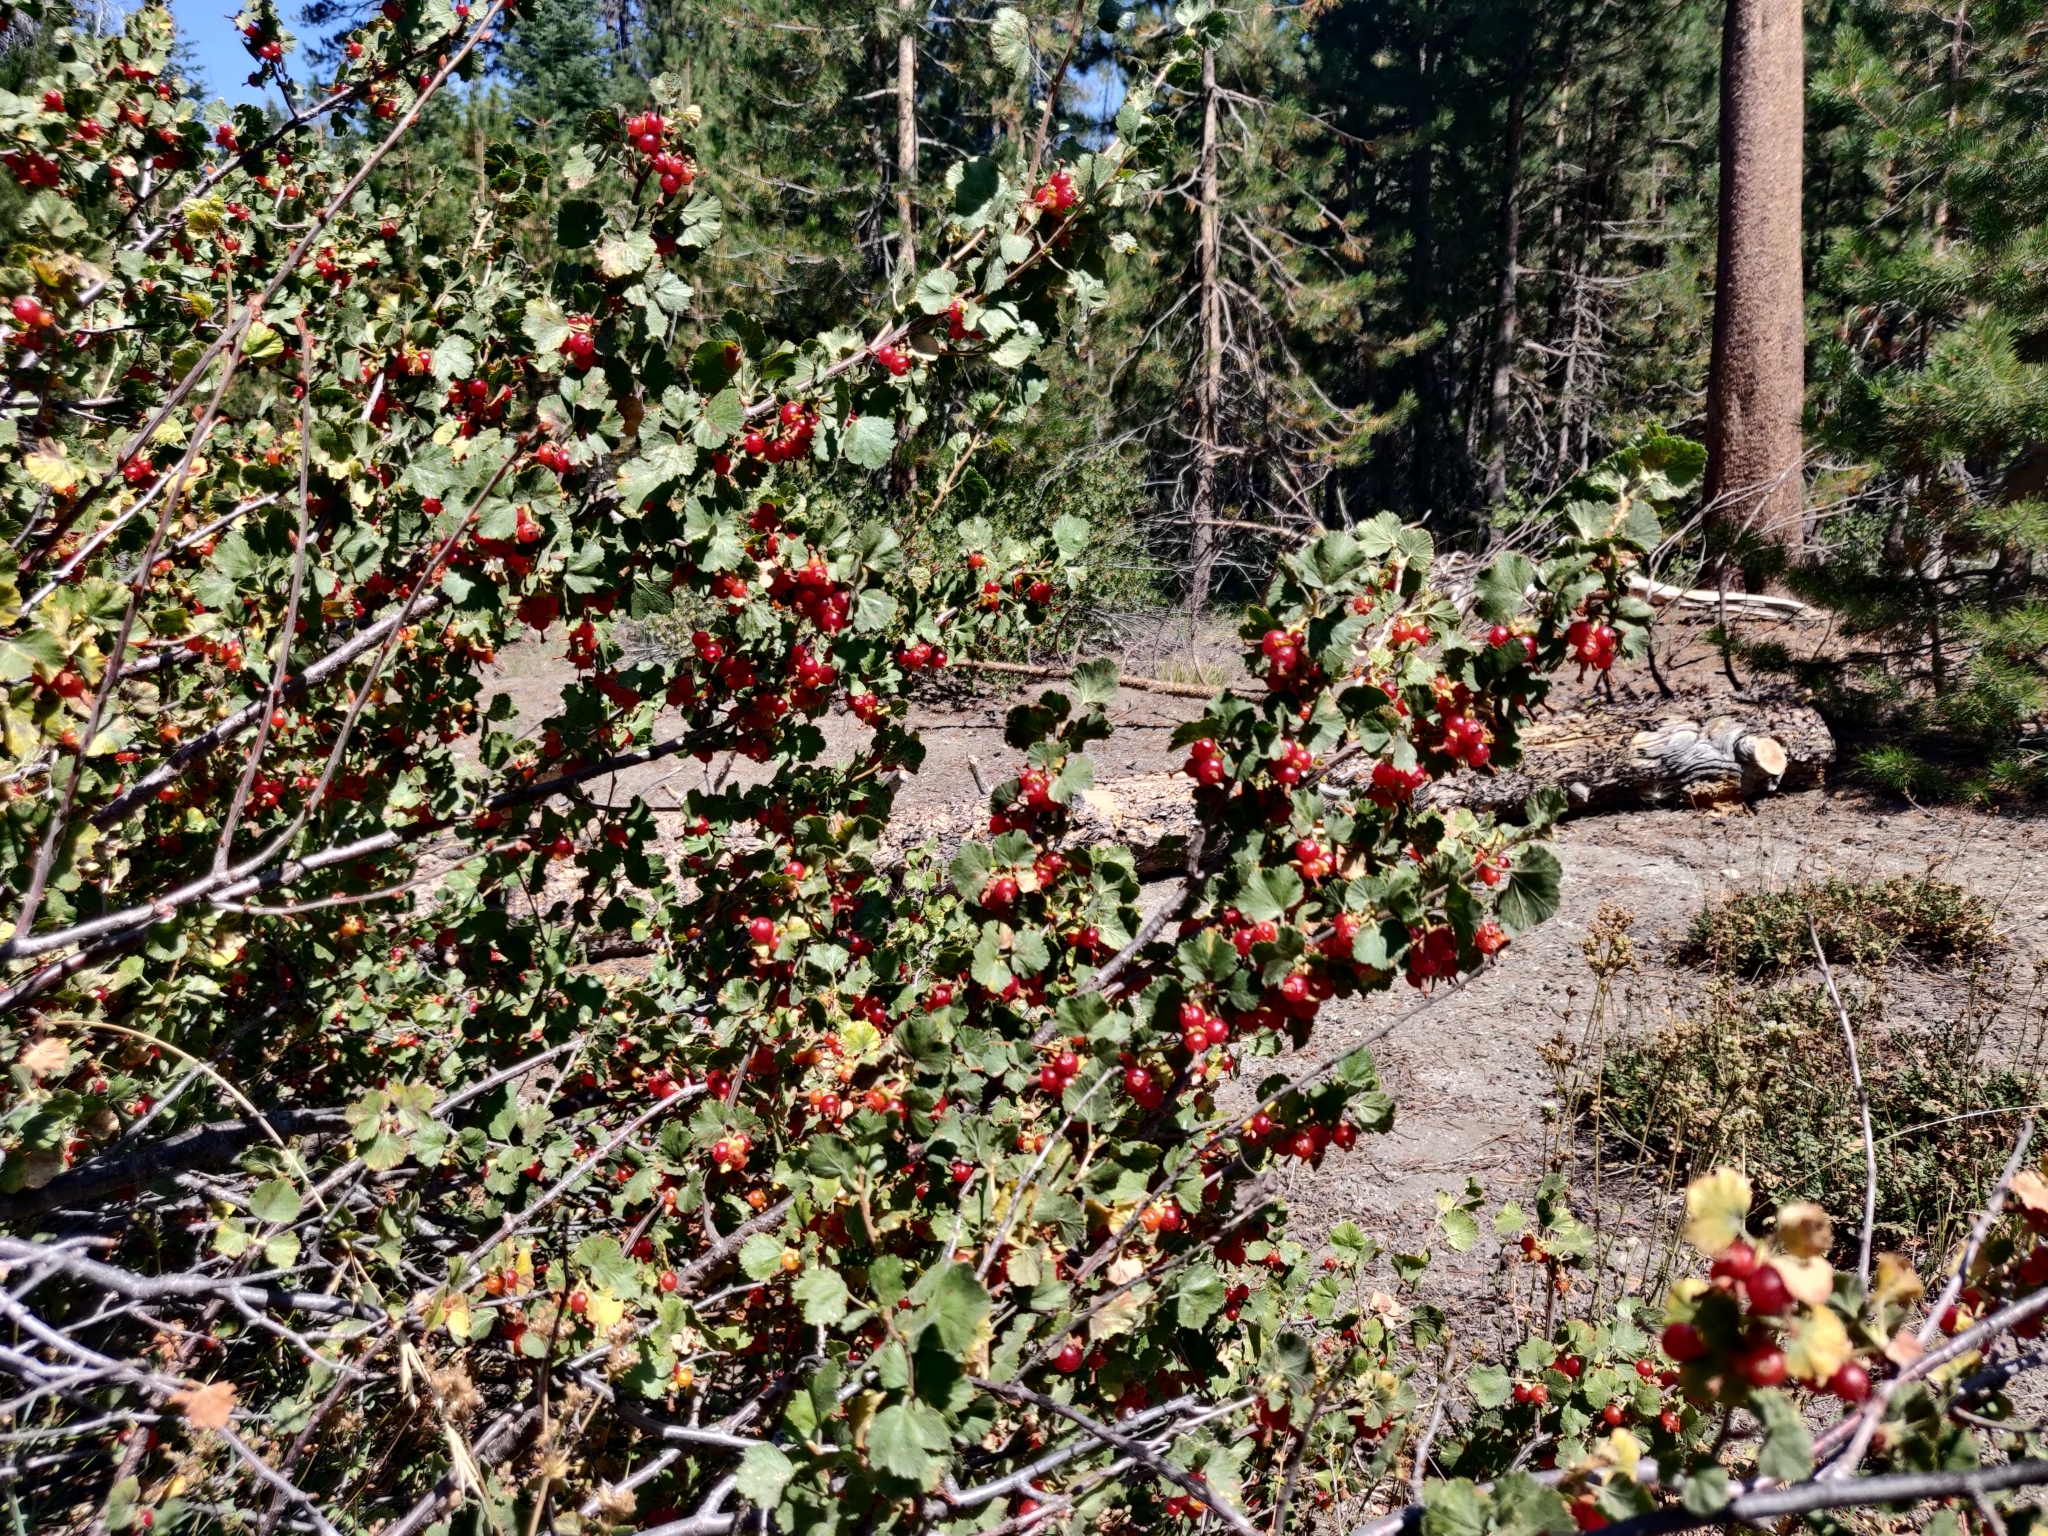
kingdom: Plantae
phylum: Tracheophyta
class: Magnoliopsida
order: Saxifragales
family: Grossulariaceae
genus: Ribes
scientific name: Ribes cereum
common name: Wax currant
